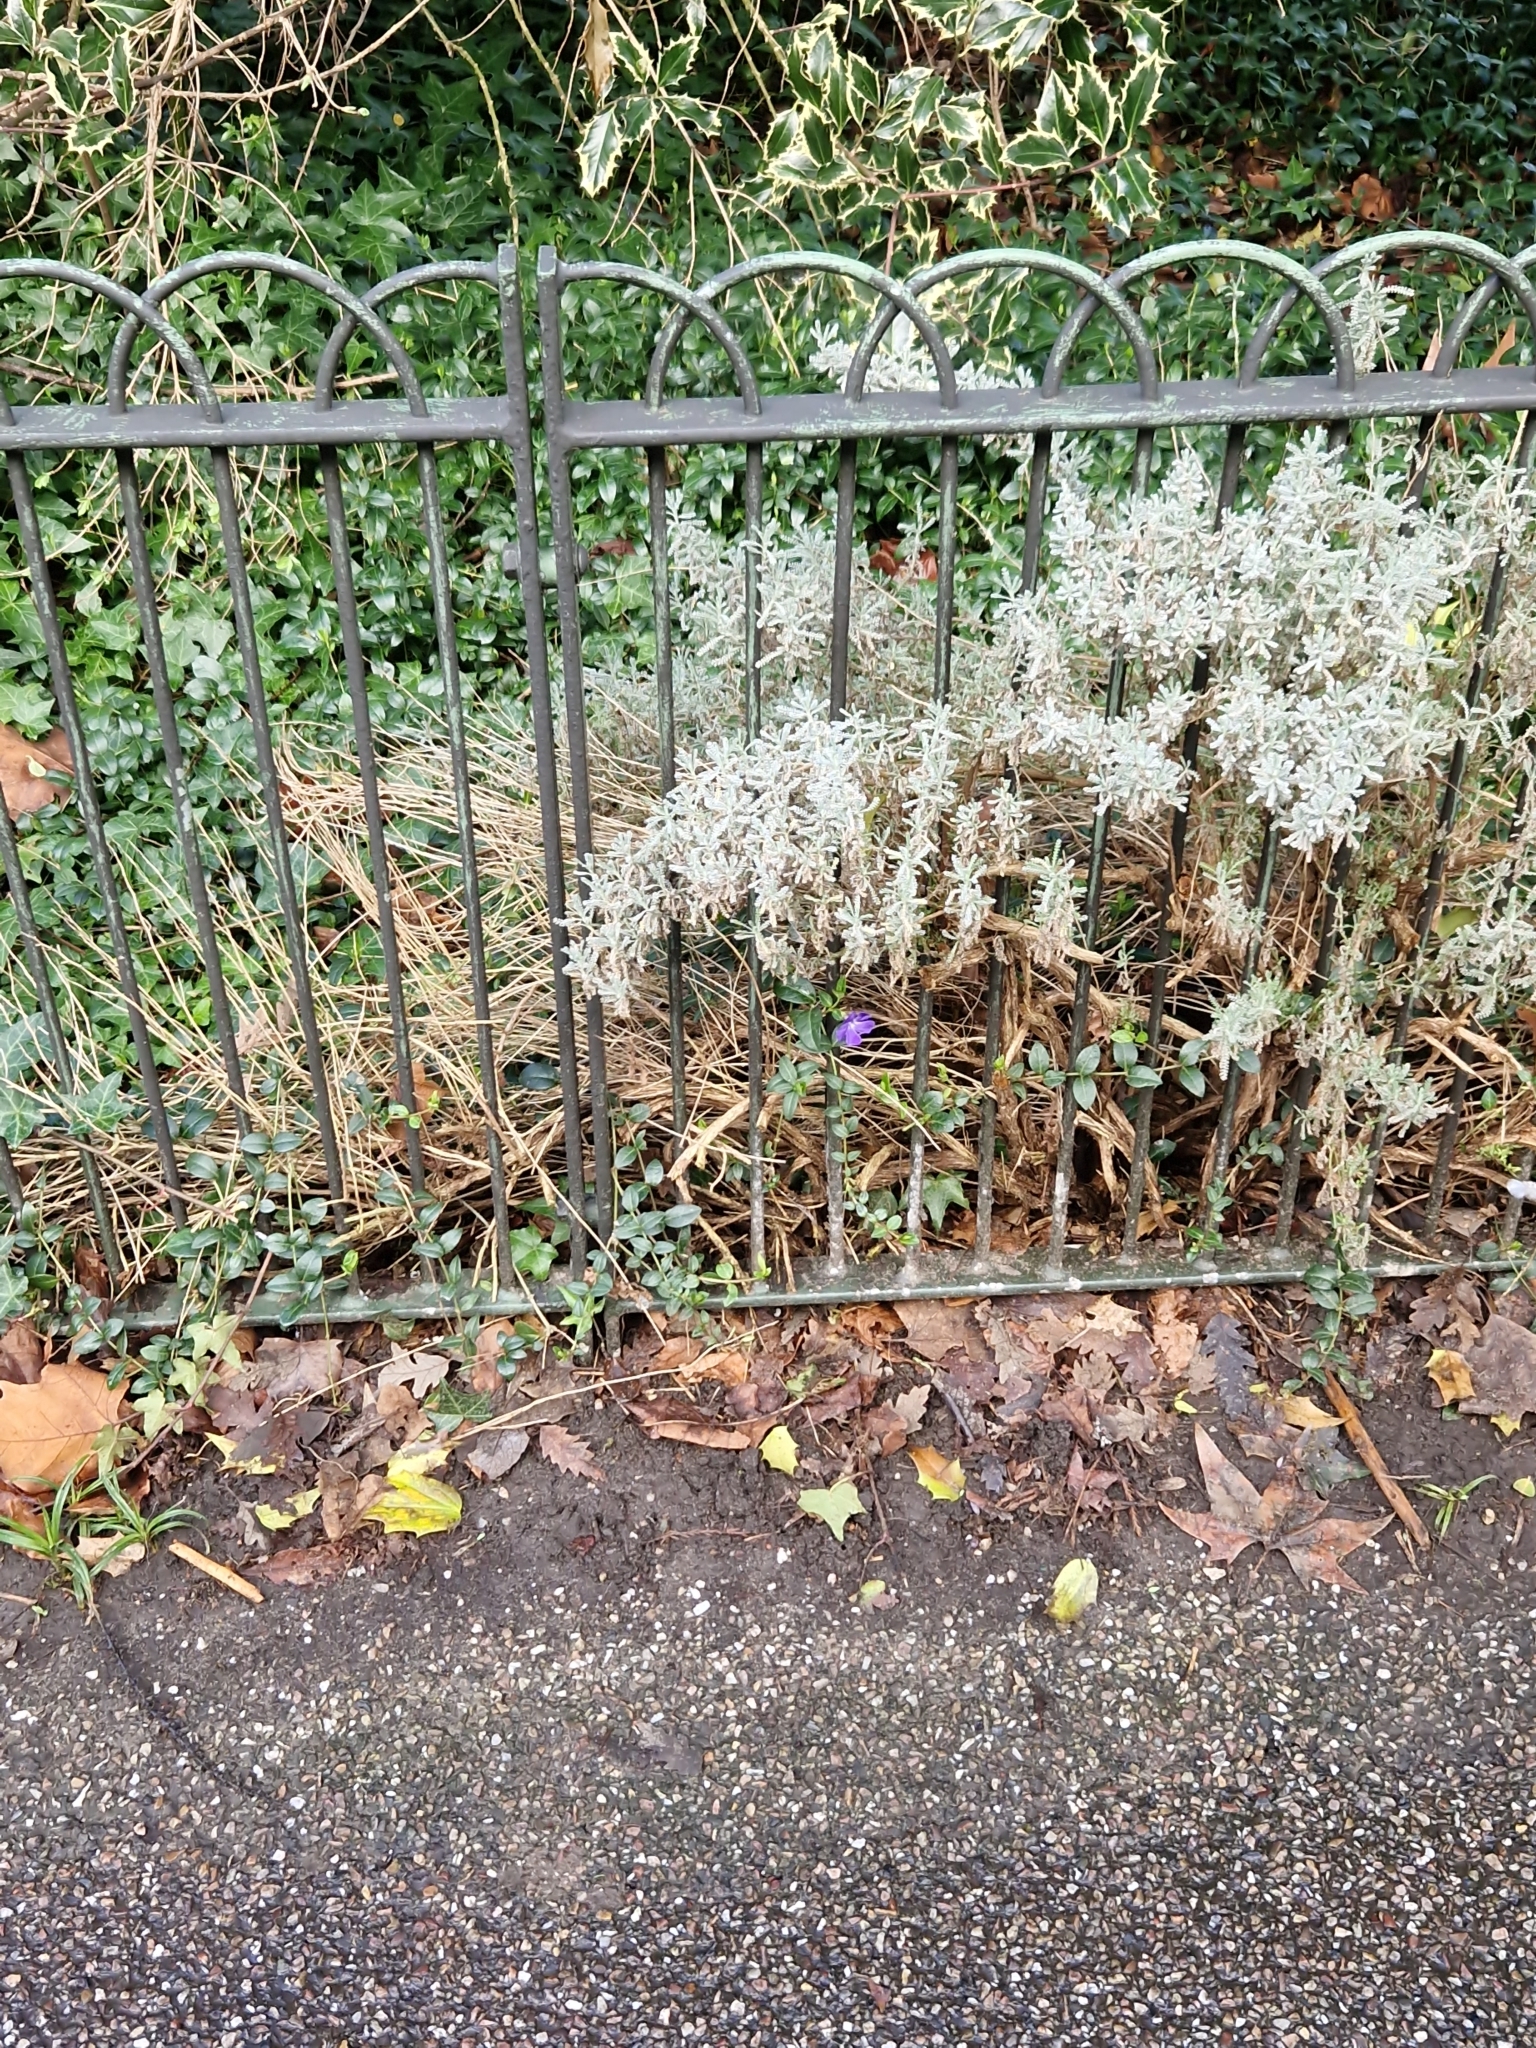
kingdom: Plantae
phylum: Tracheophyta
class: Magnoliopsida
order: Gentianales
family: Apocynaceae
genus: Vinca
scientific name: Vinca minor
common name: Lesser periwinkle
